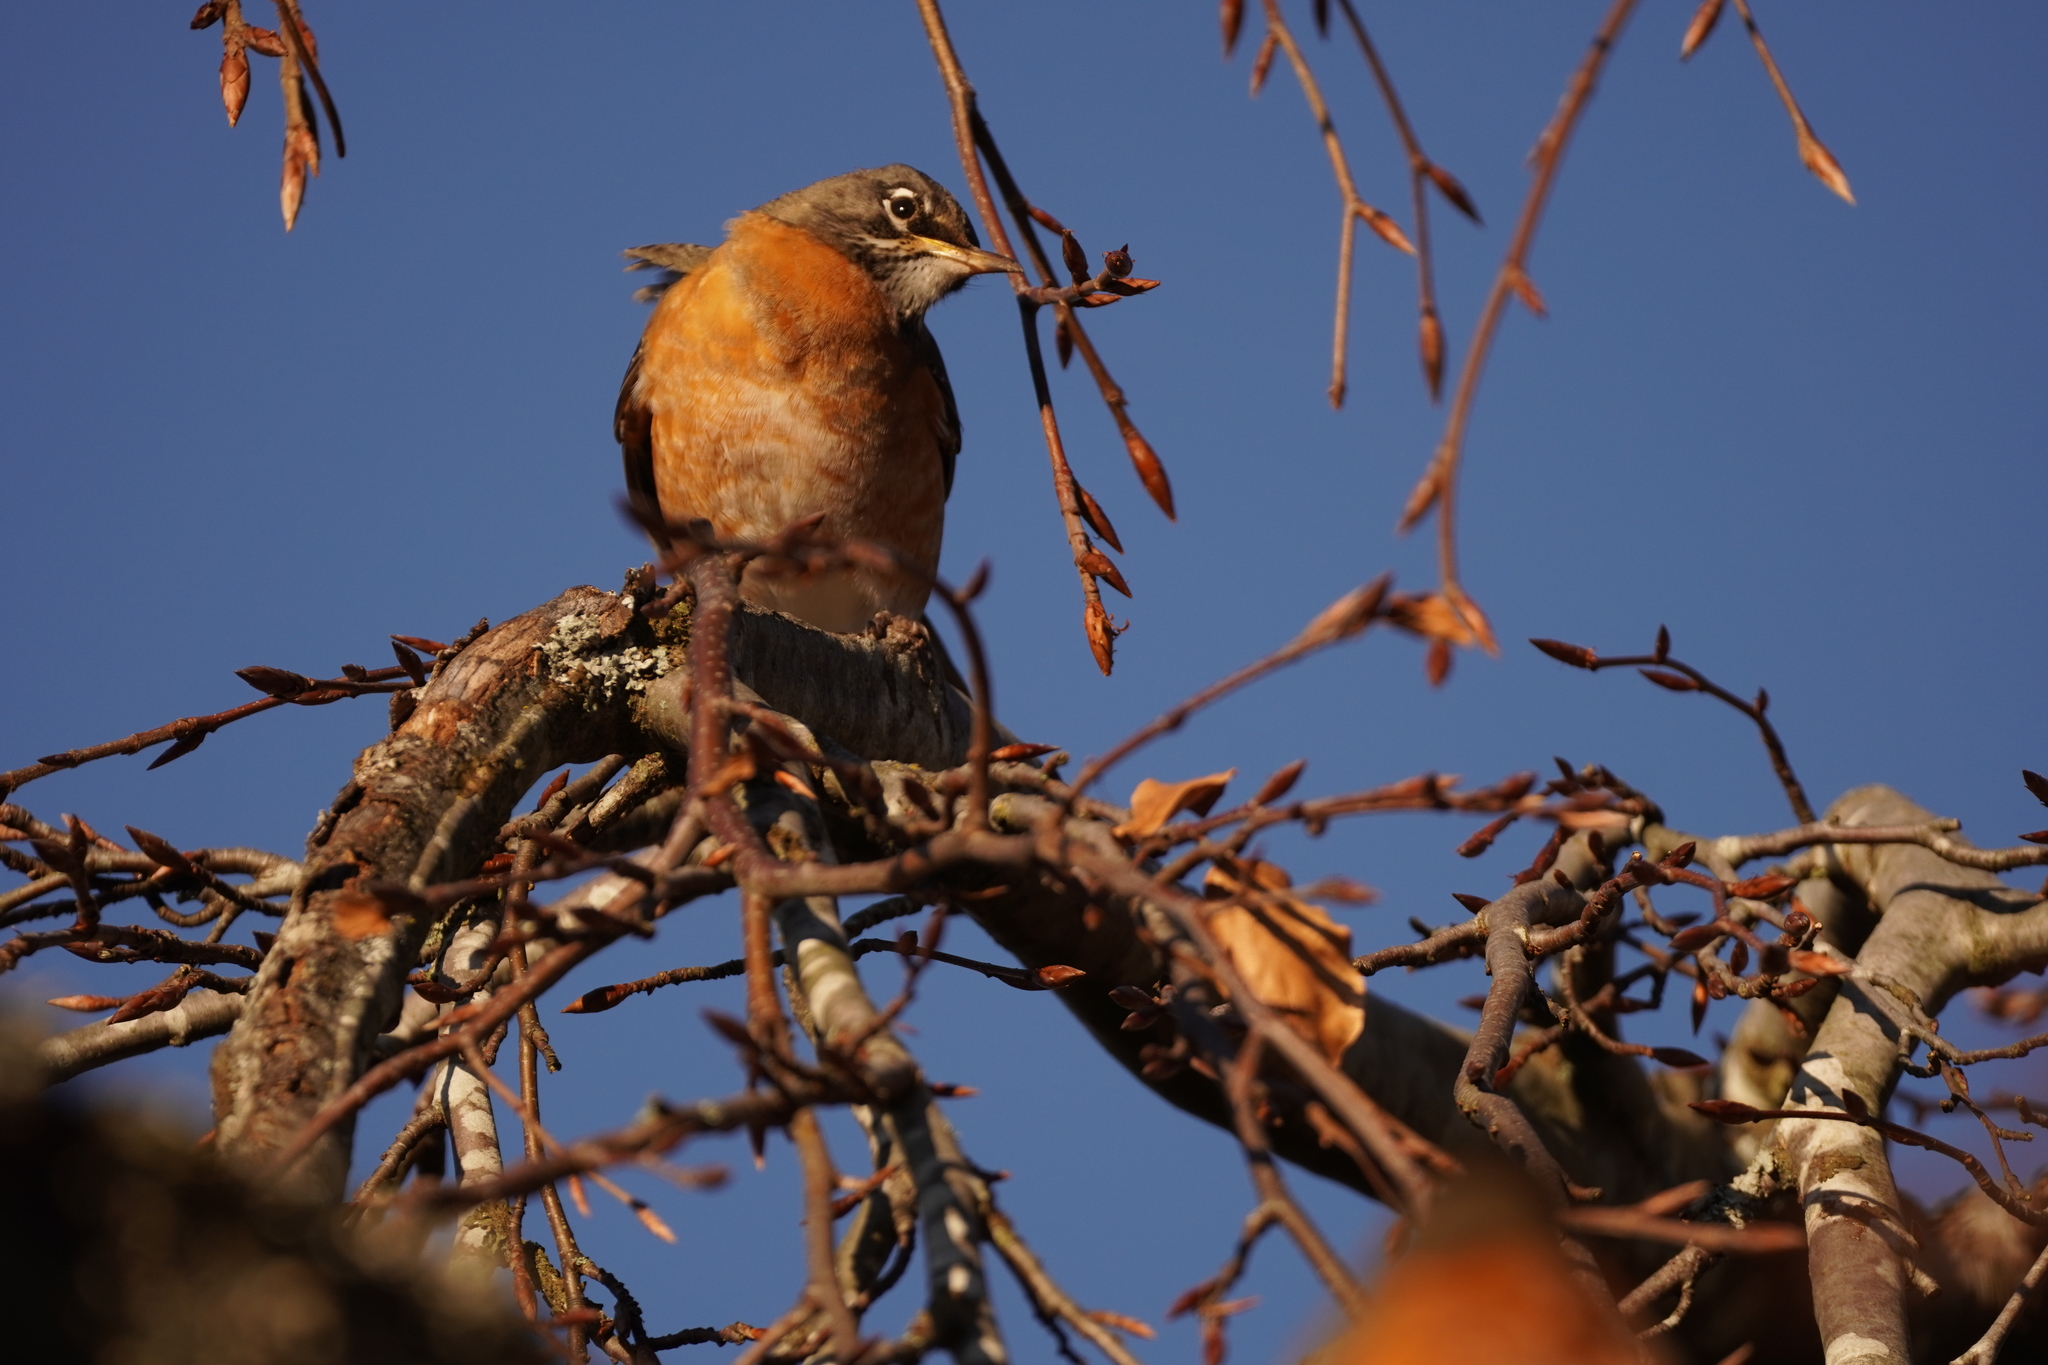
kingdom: Animalia
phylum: Chordata
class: Aves
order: Passeriformes
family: Turdidae
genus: Turdus
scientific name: Turdus migratorius
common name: American robin
